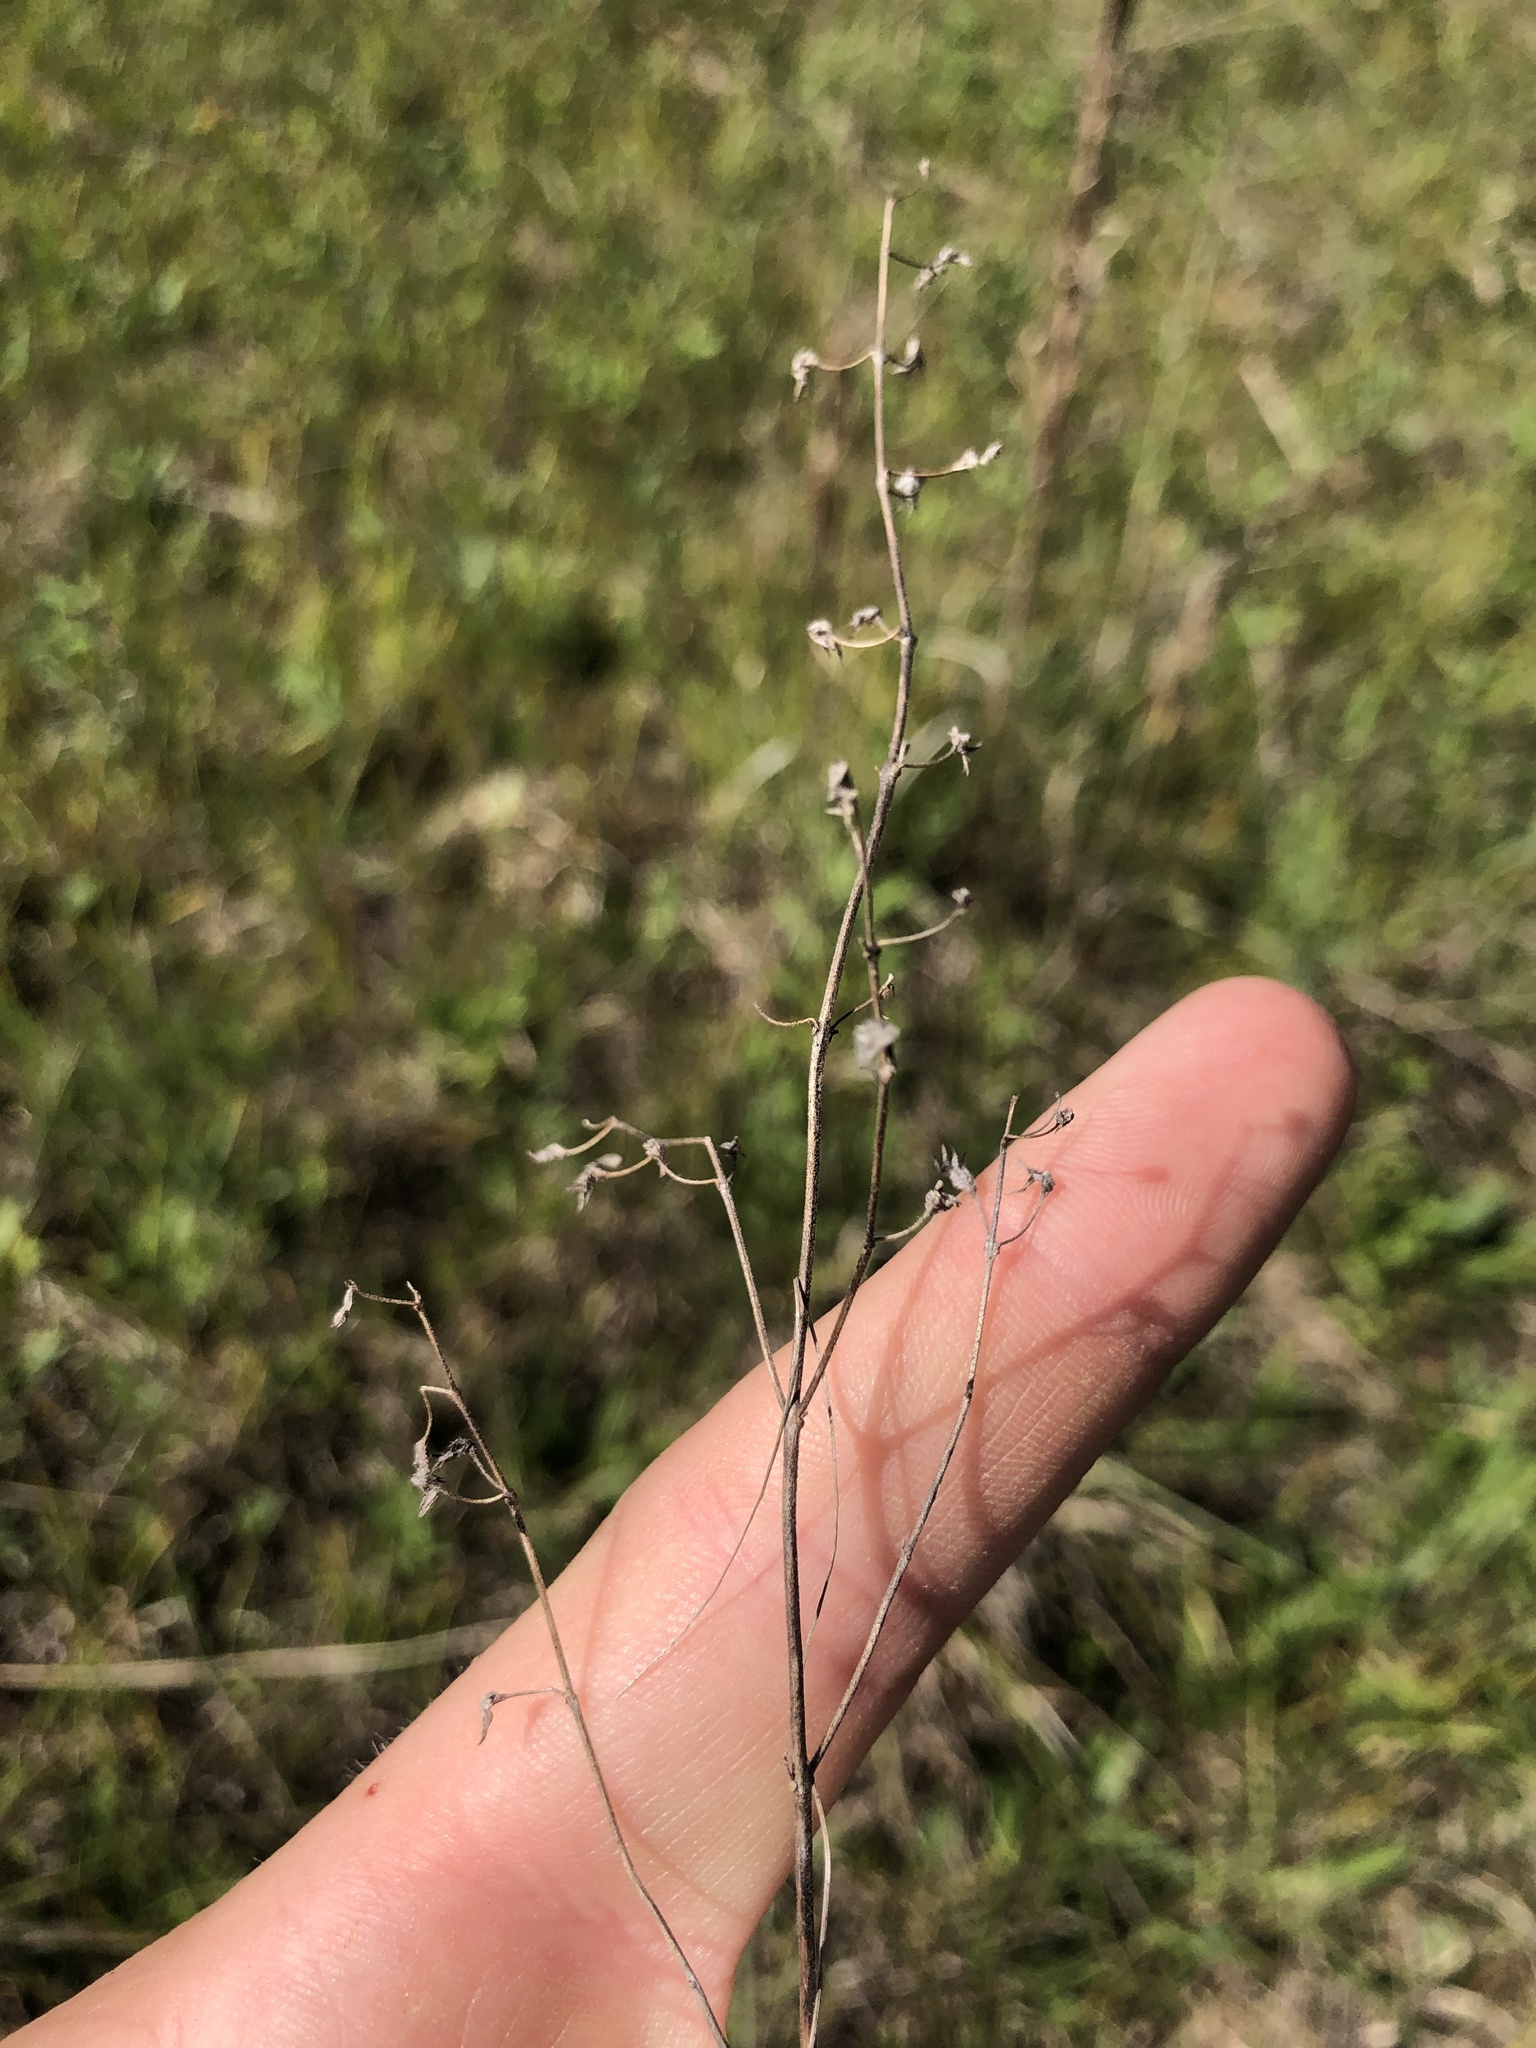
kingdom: Plantae
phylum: Tracheophyta
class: Magnoliopsida
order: Lamiales
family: Lamiaceae
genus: Trichostema
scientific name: Trichostema brachiatum
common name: False pennyroyal
